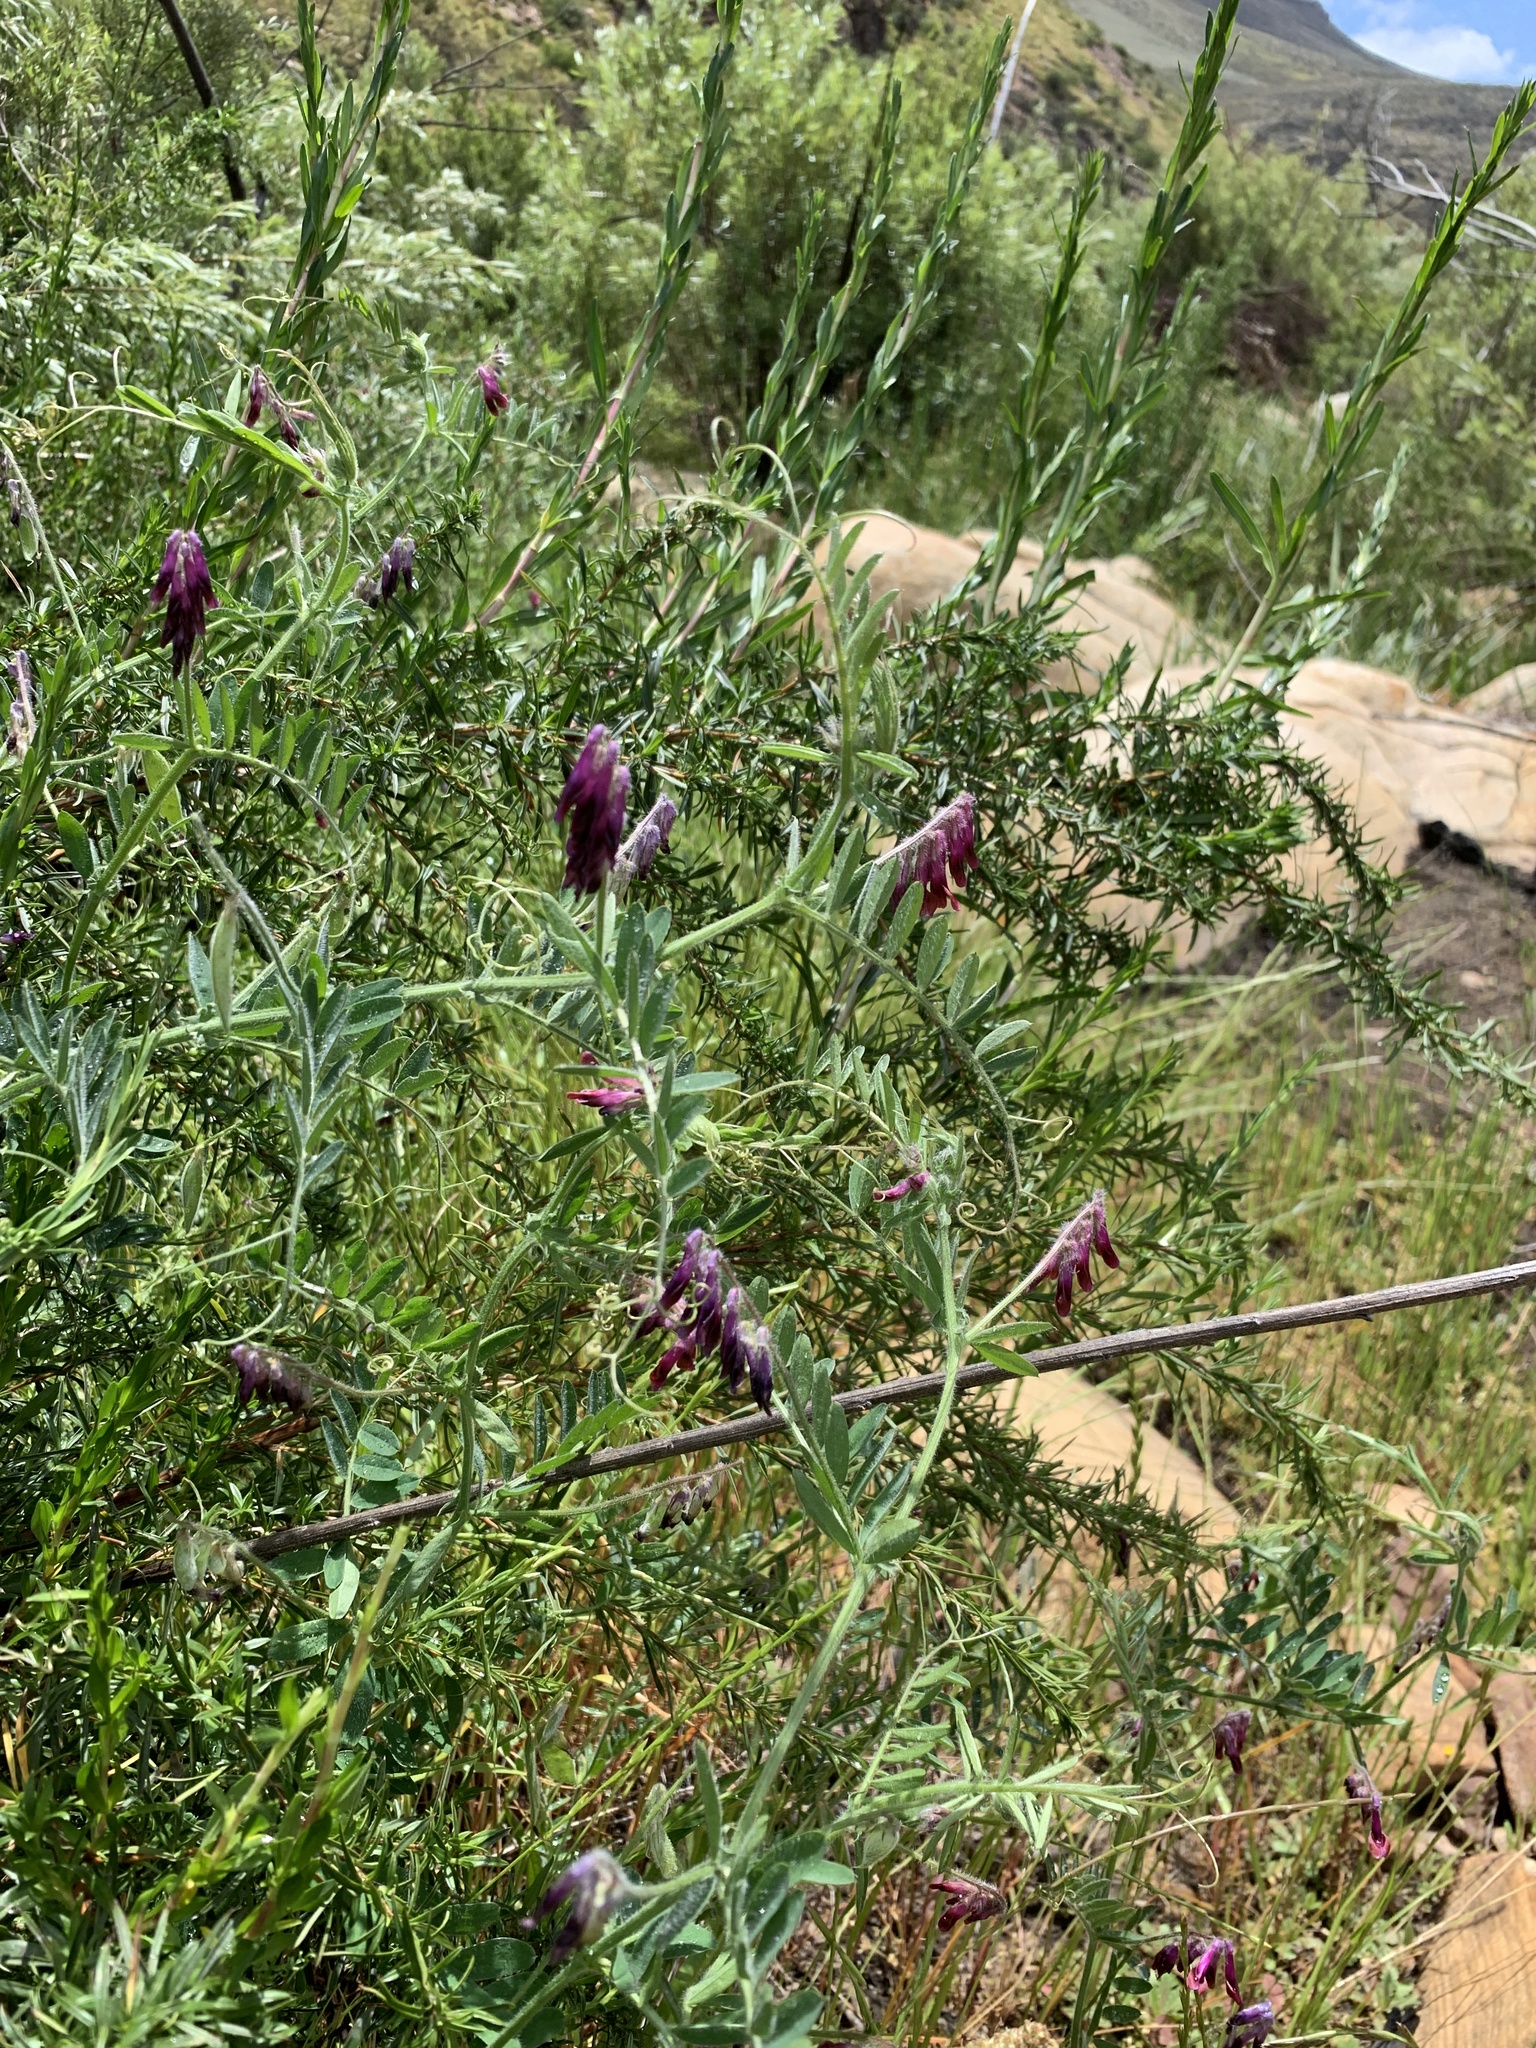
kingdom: Plantae
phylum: Tracheophyta
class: Magnoliopsida
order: Fabales
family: Fabaceae
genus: Vicia
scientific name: Vicia benghalensis
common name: Purple vetch
